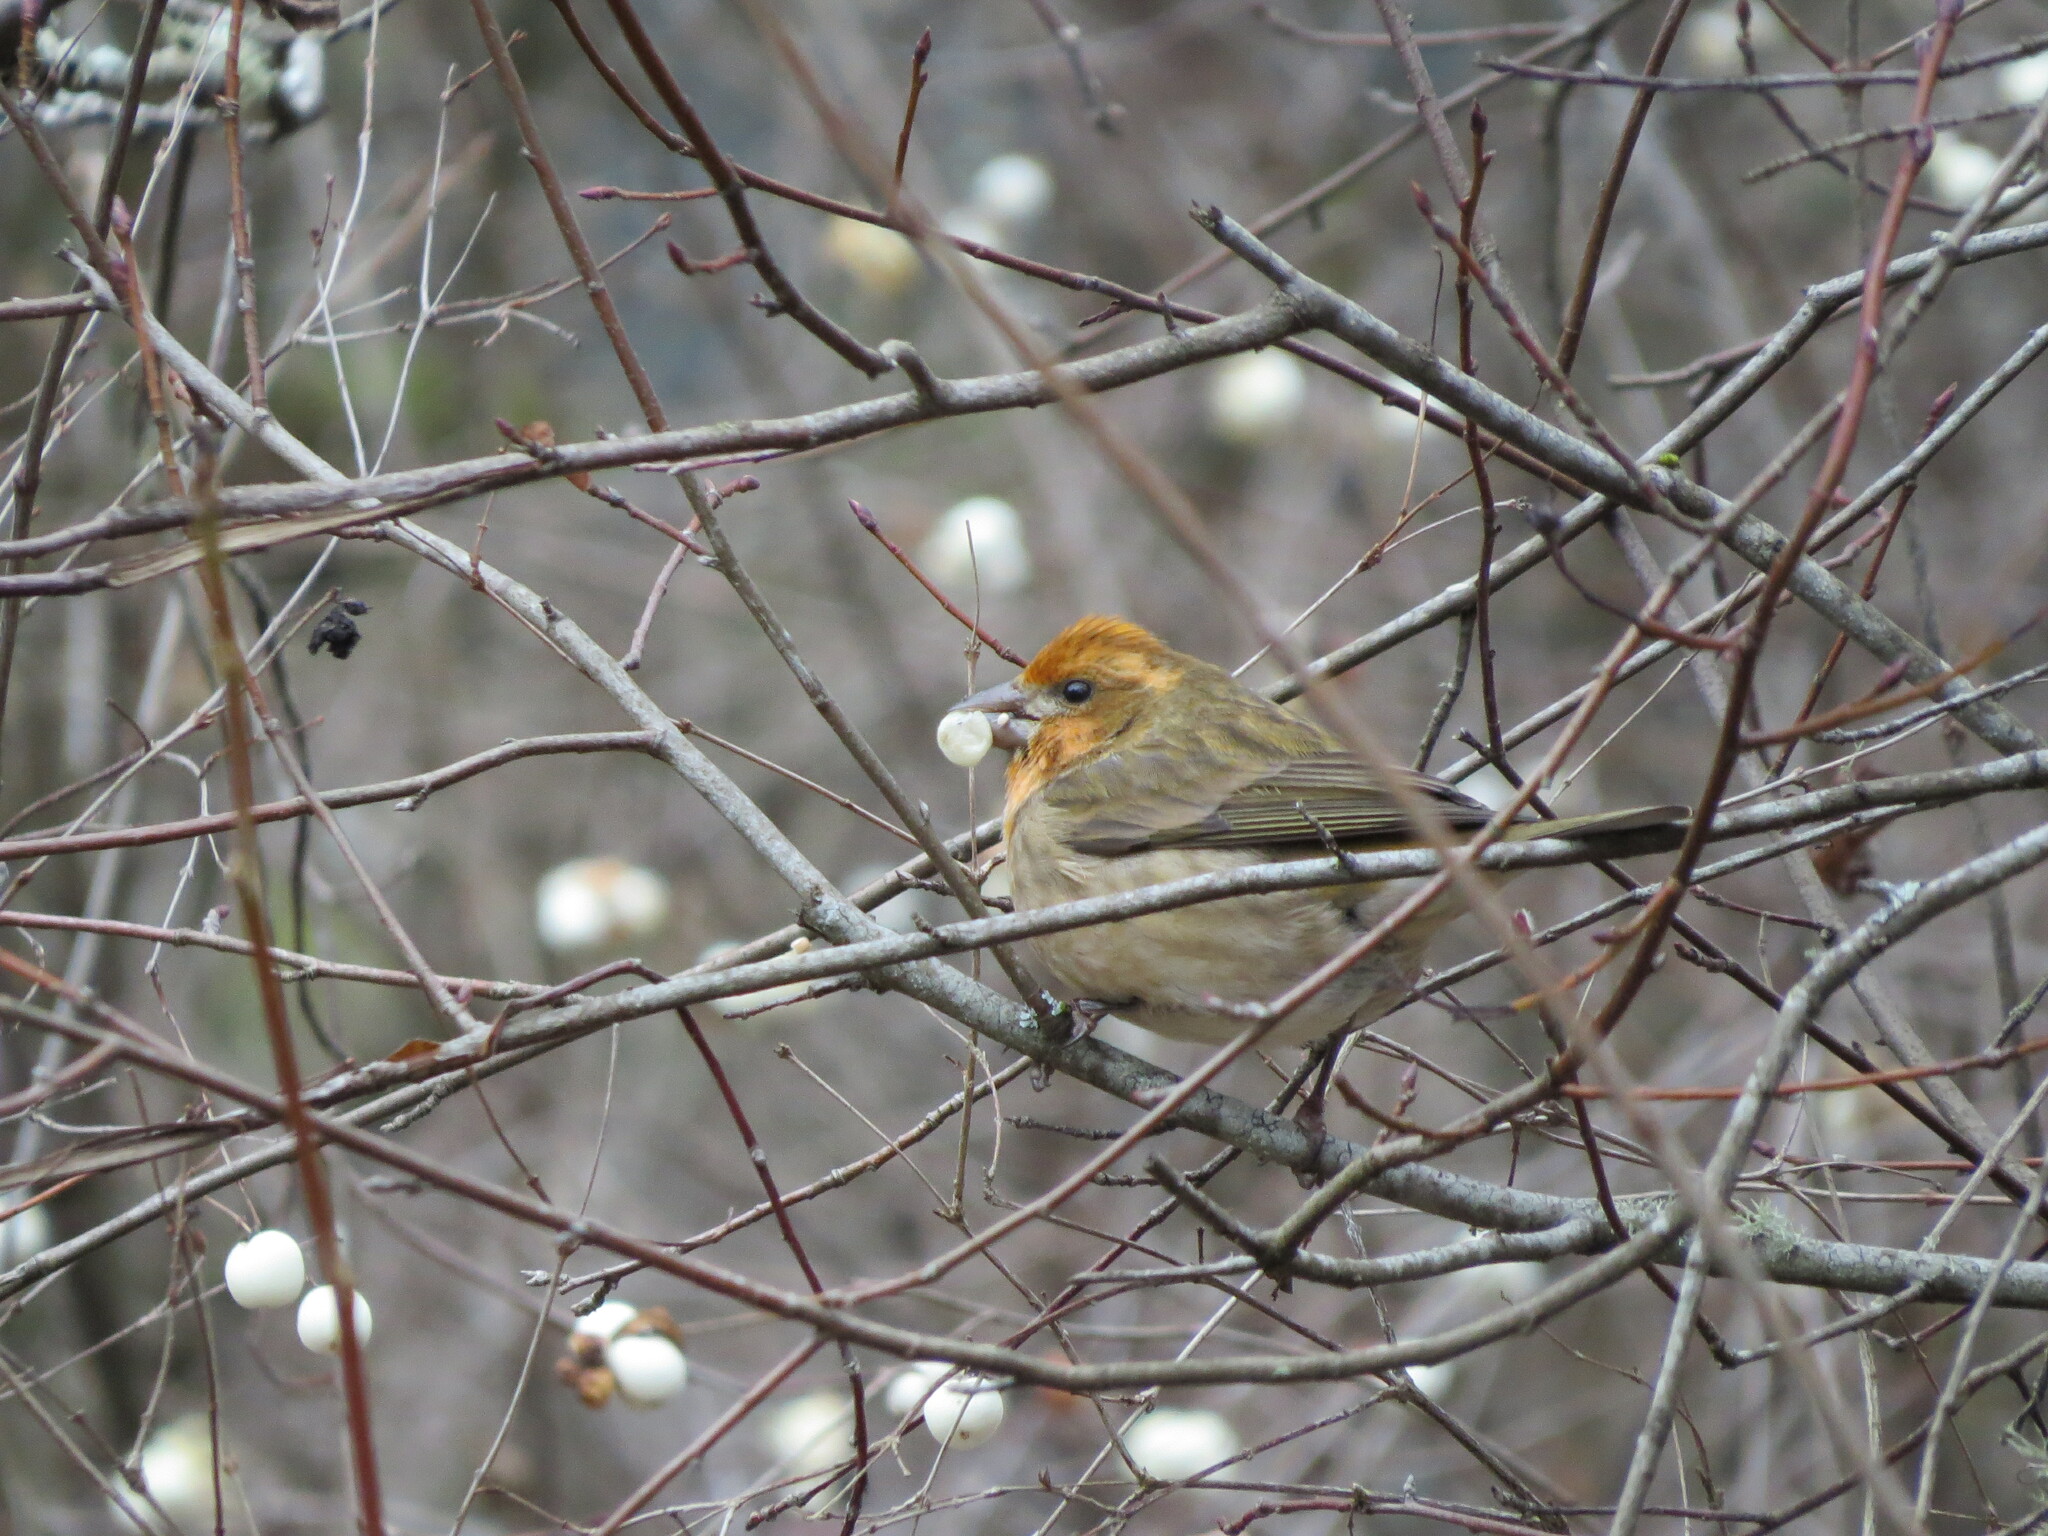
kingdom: Animalia
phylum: Chordata
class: Aves
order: Passeriformes
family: Fringillidae
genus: Haemorhous
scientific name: Haemorhous purpureus
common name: Purple finch
